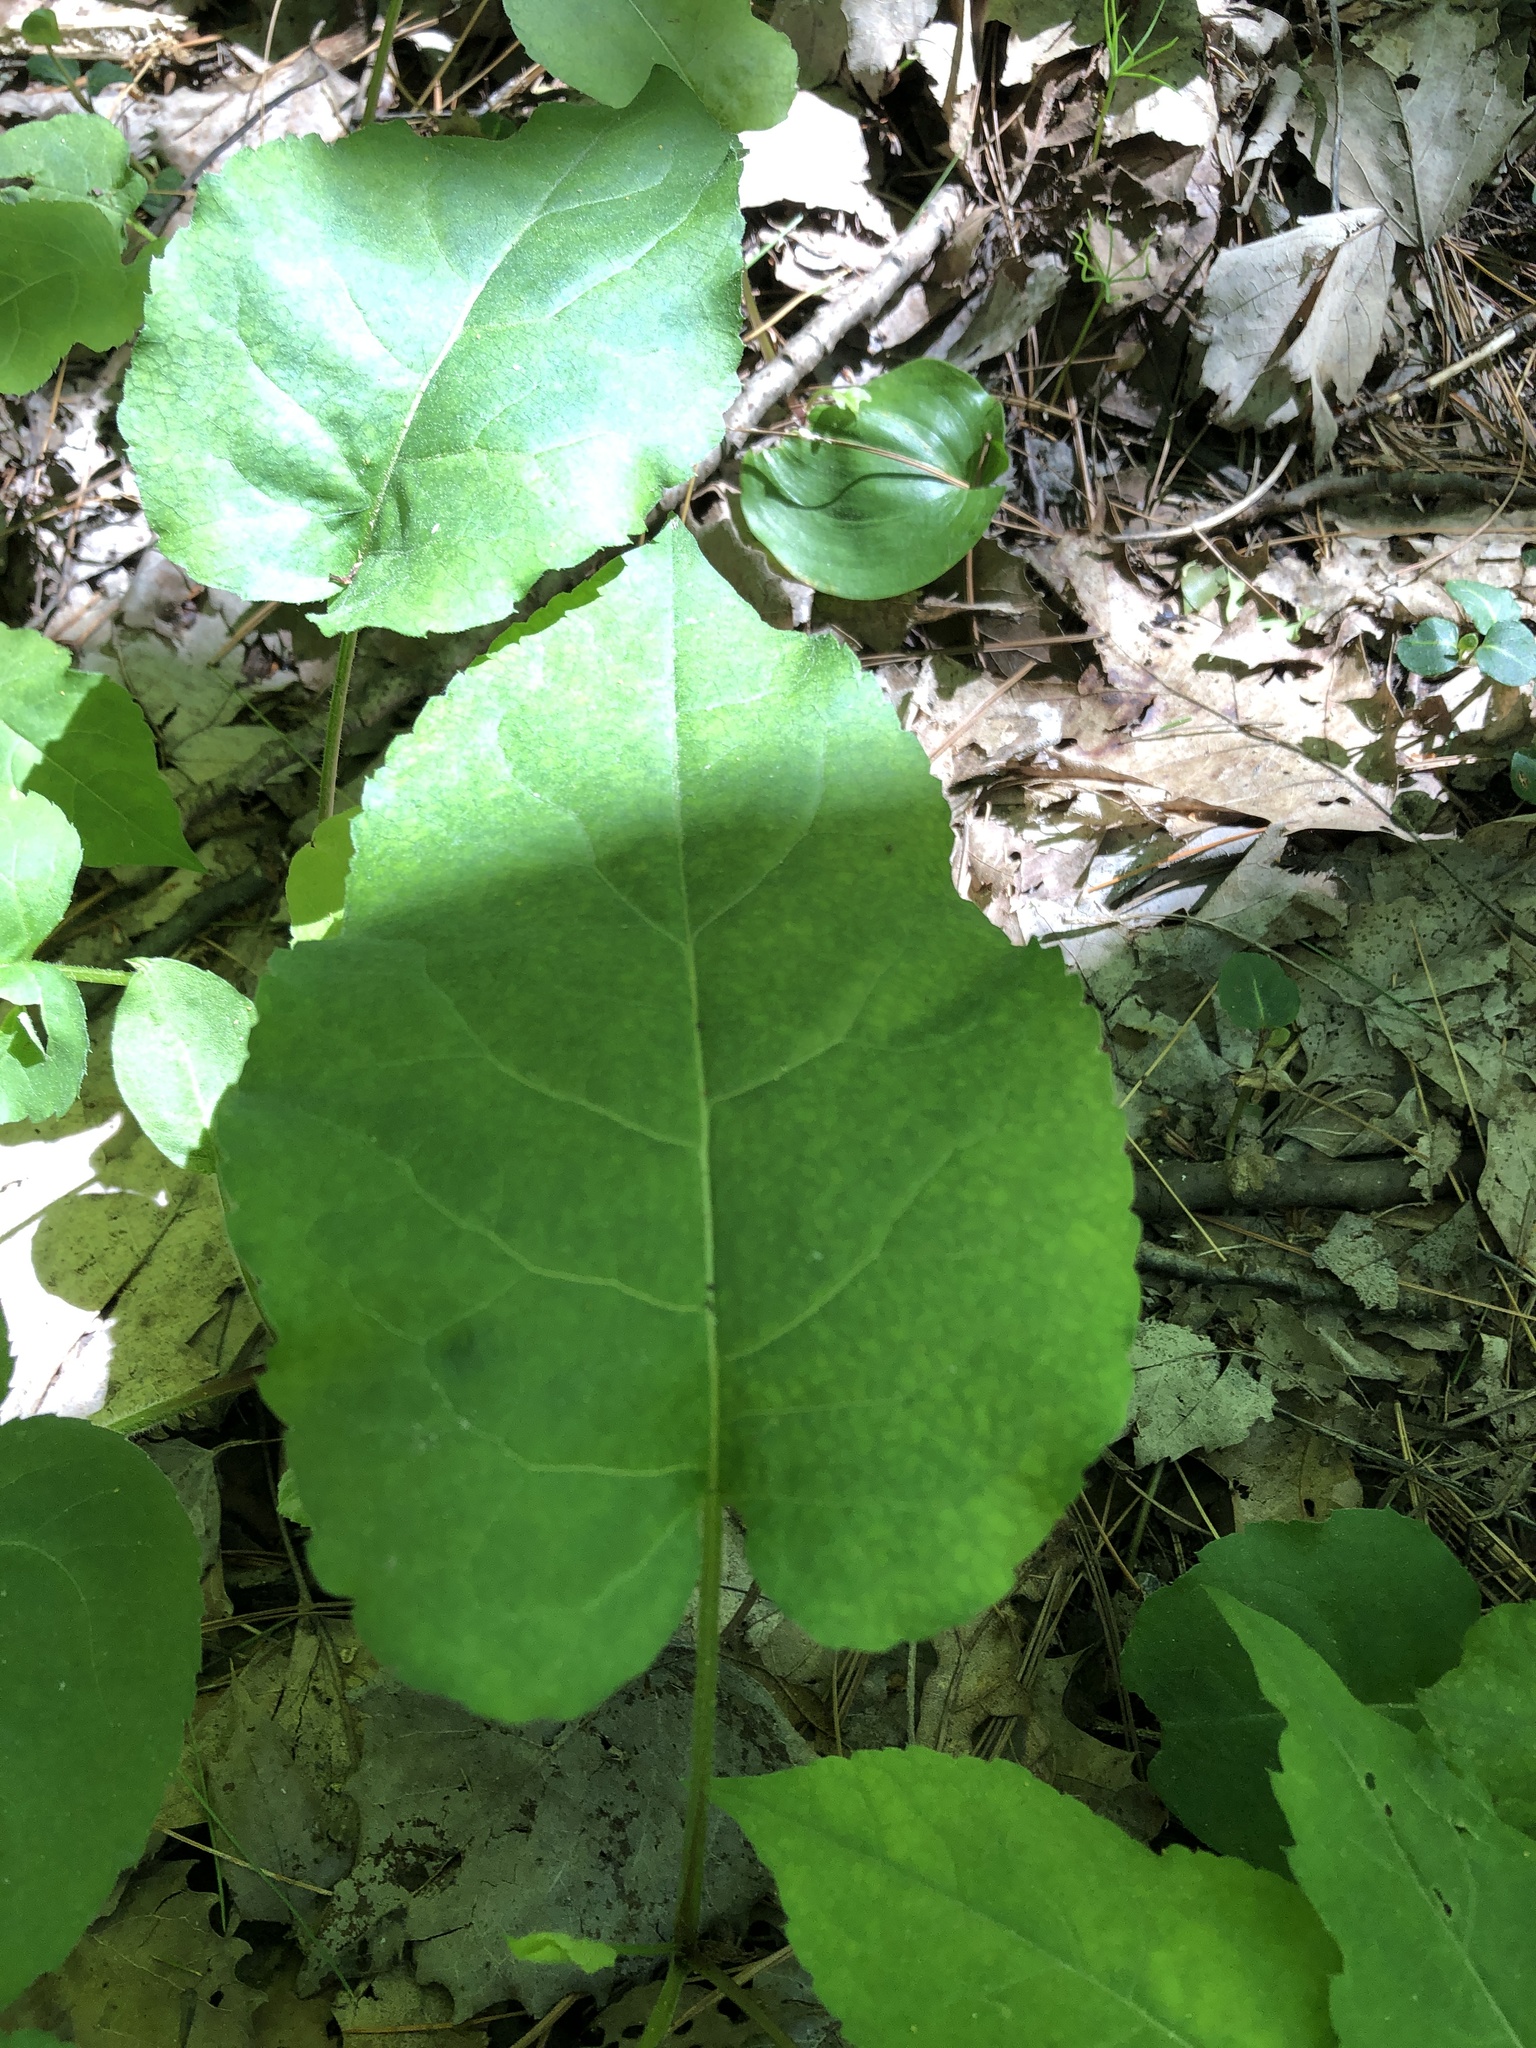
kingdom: Plantae
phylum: Tracheophyta
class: Magnoliopsida
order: Asterales
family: Asteraceae
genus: Eurybia
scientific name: Eurybia macrophylla
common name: Big-leaved aster
